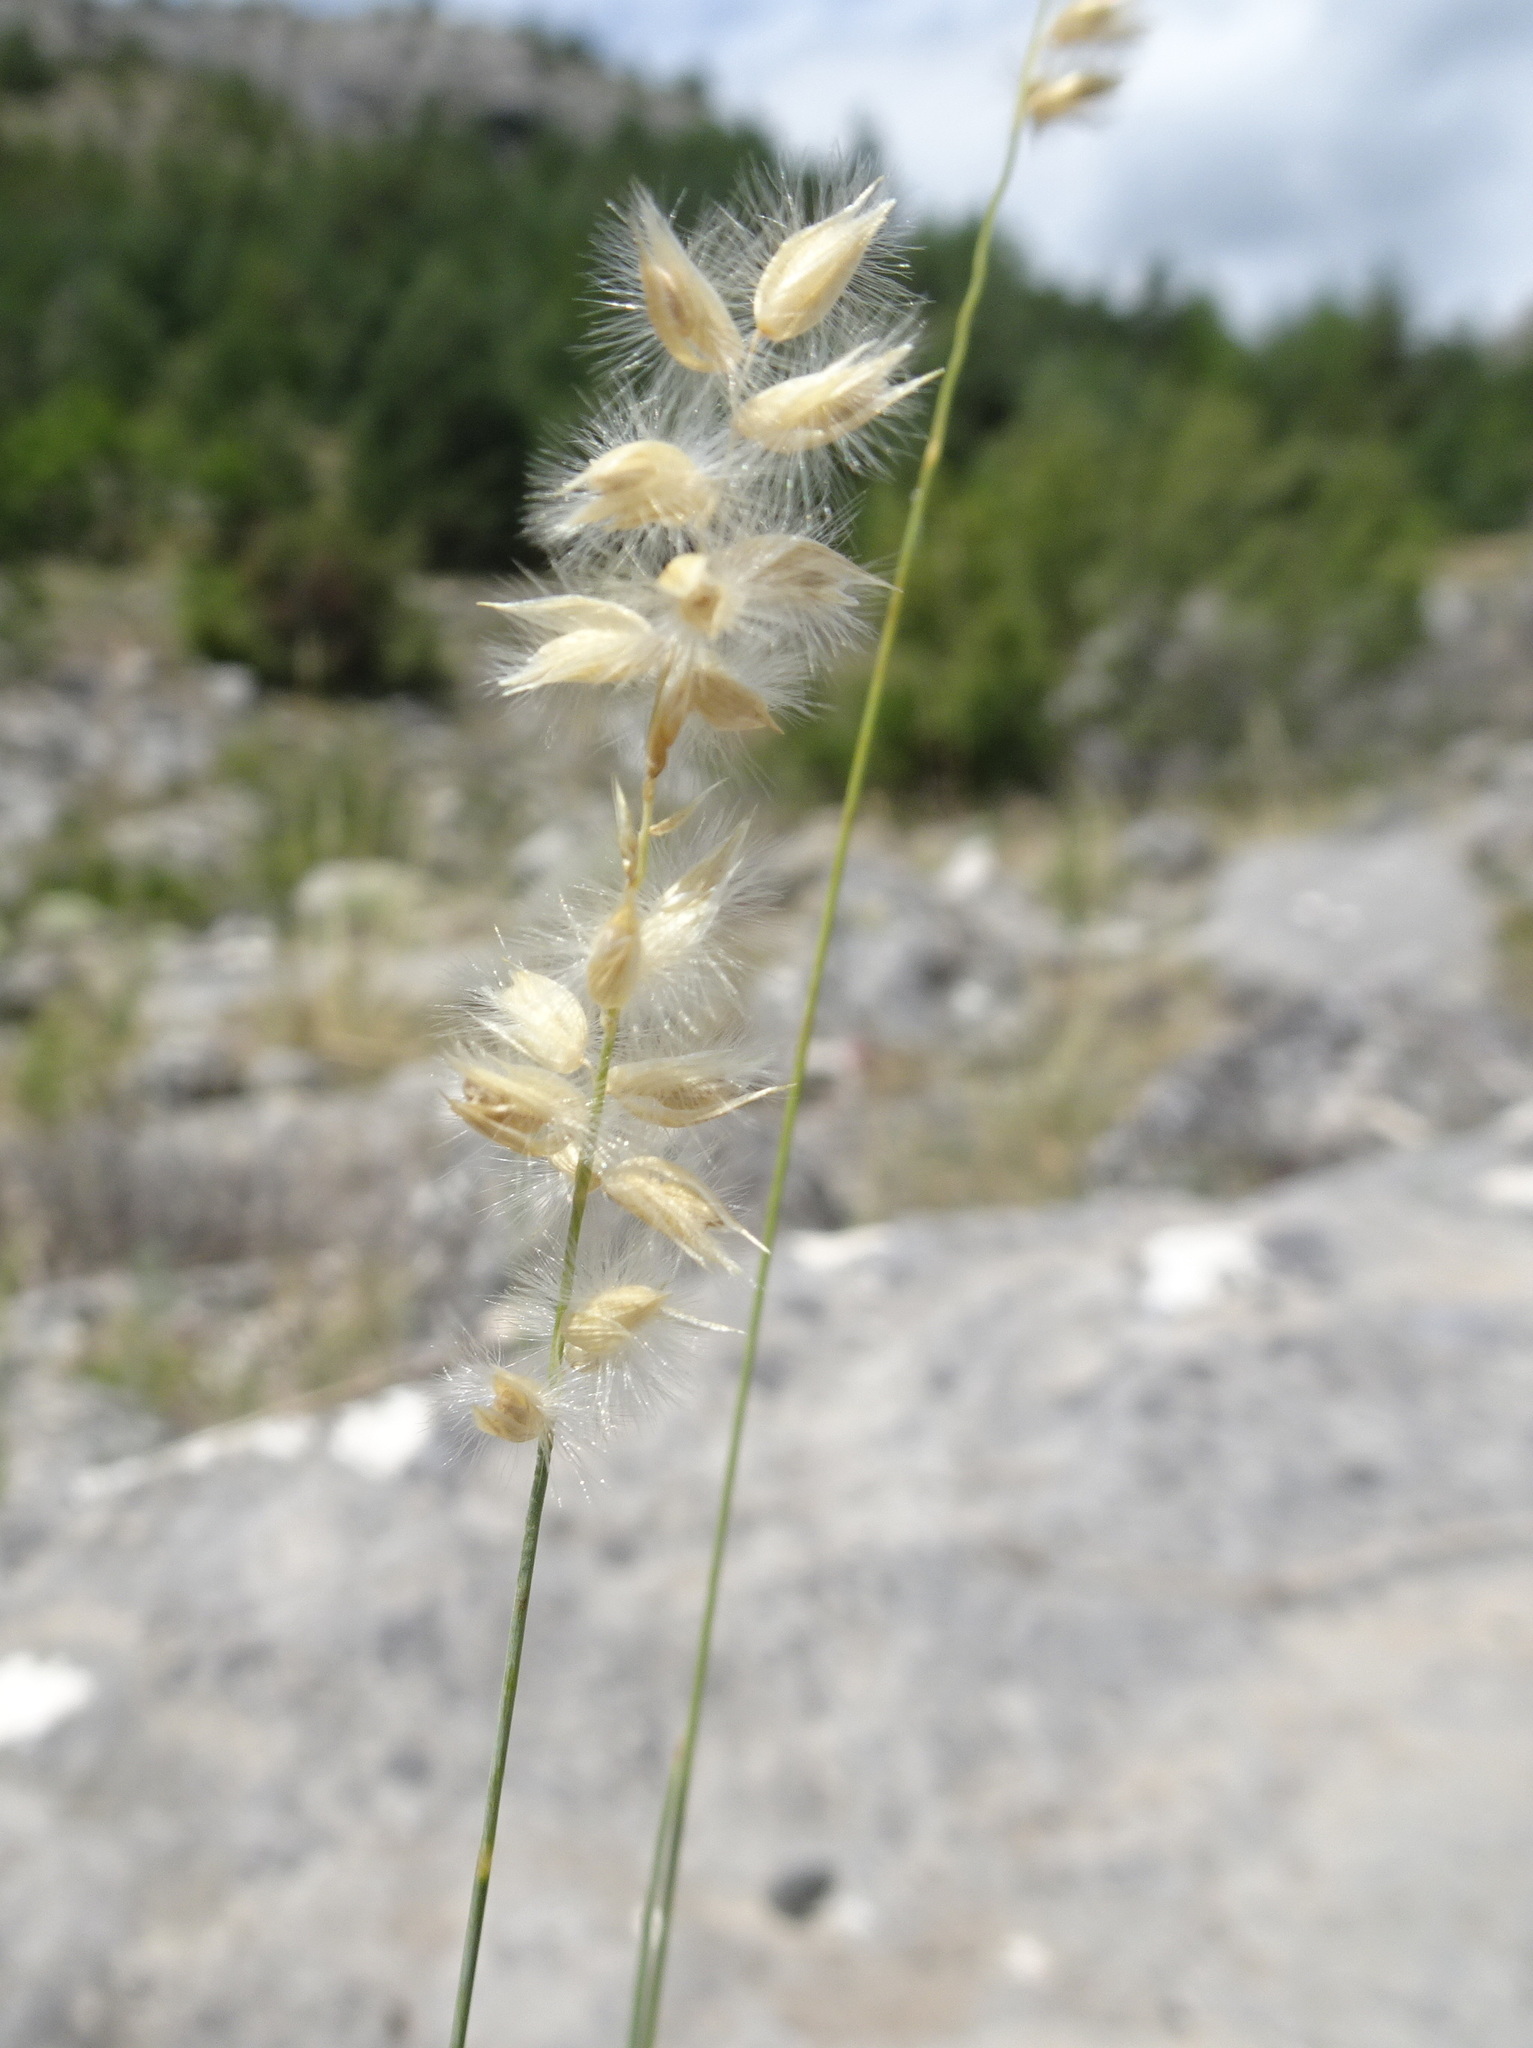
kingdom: Plantae
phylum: Tracheophyta
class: Liliopsida
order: Poales
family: Poaceae
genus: Melica
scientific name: Melica ciliata
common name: Hairy melicgrass
